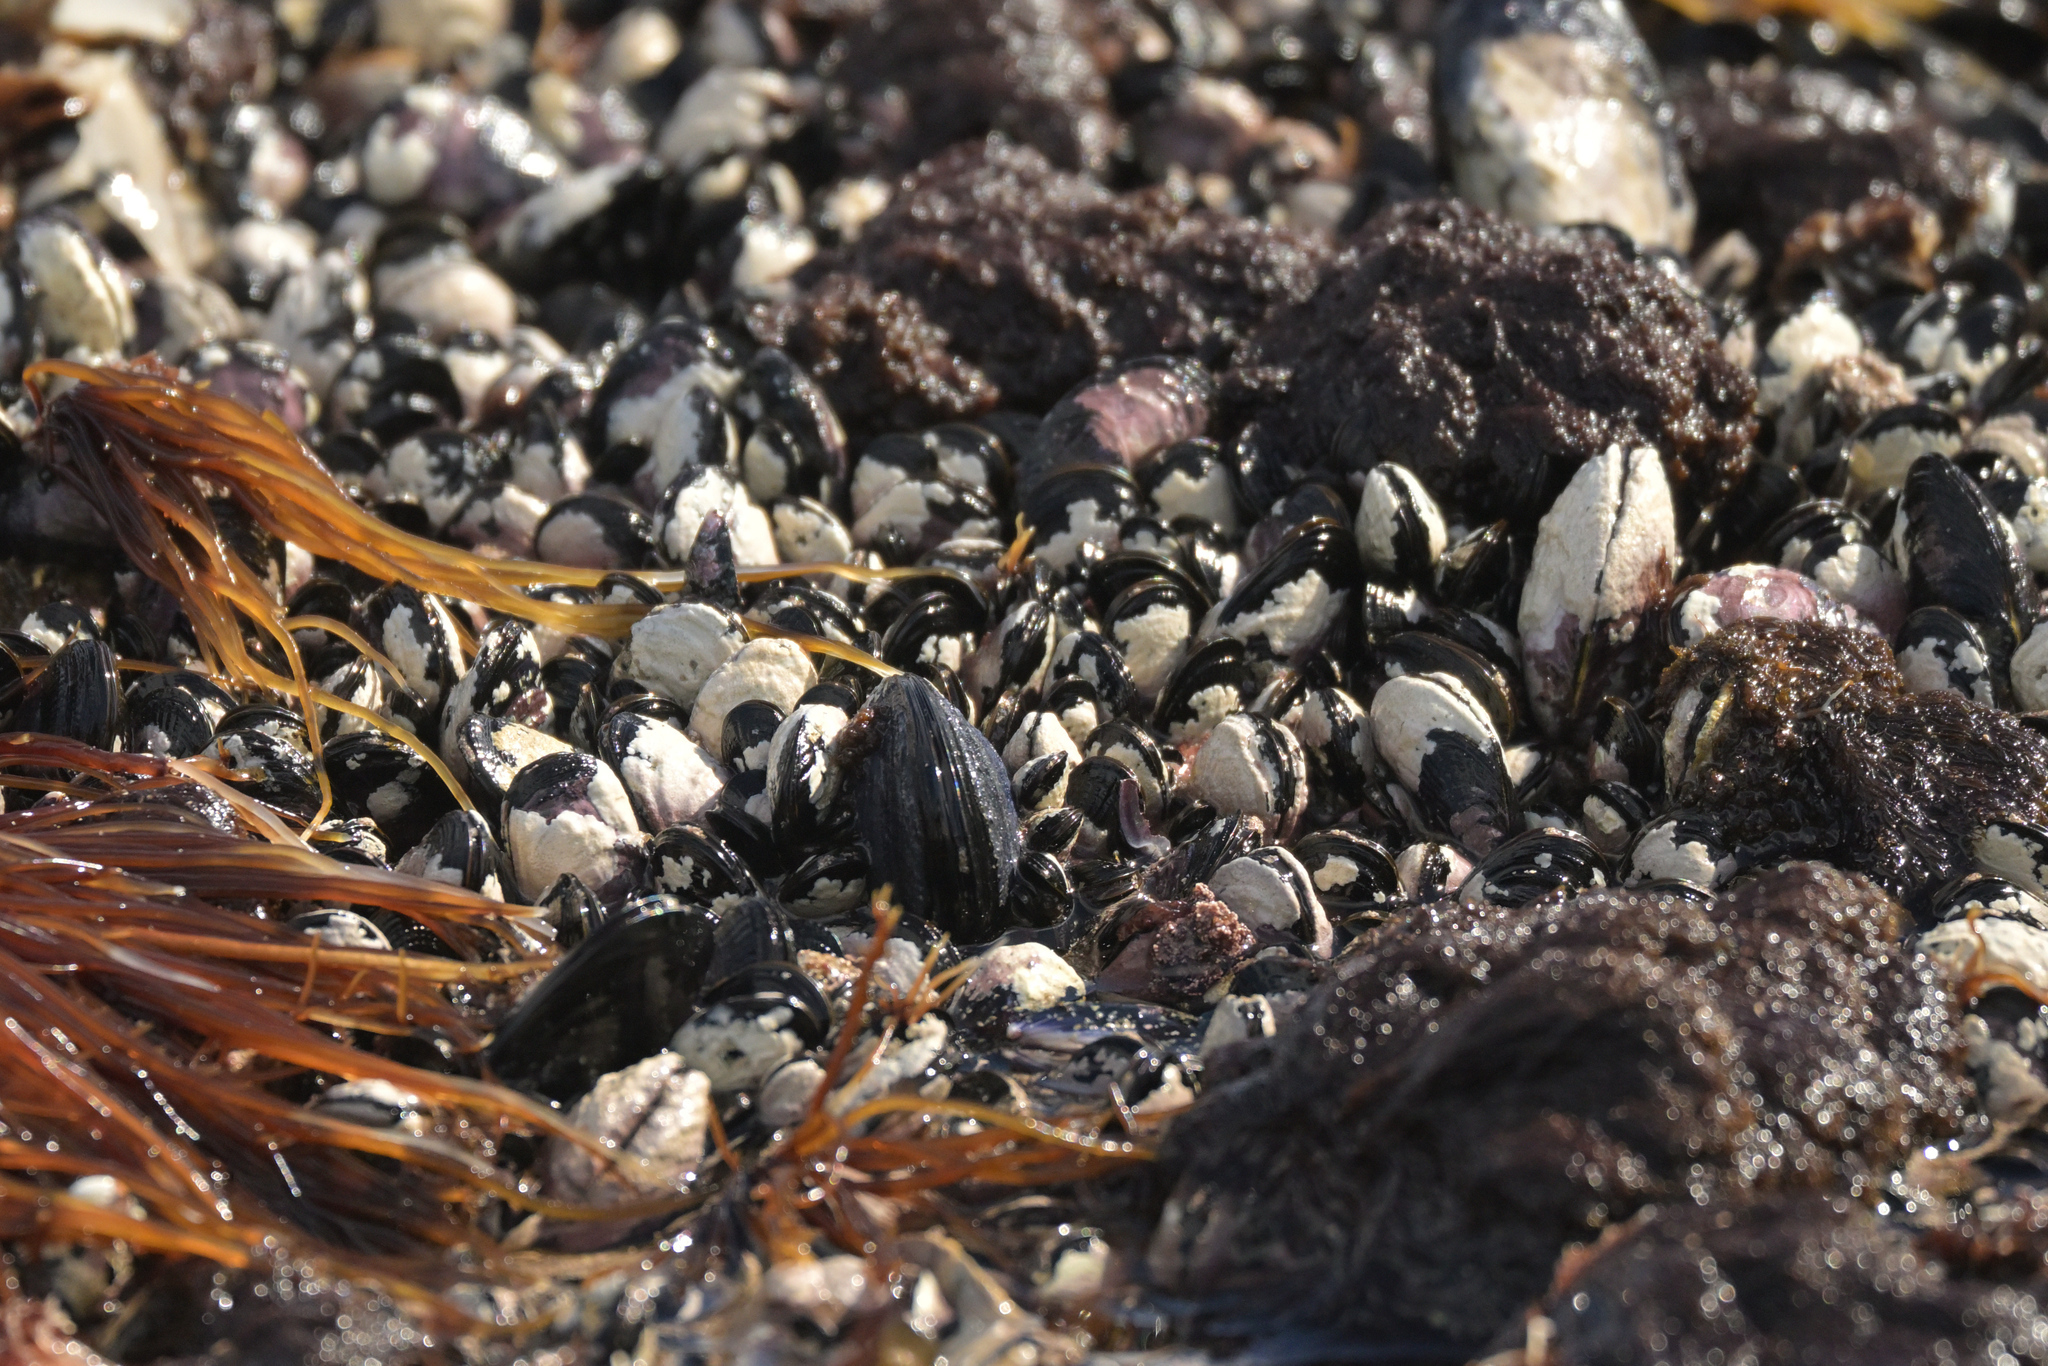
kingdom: Animalia
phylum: Mollusca
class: Bivalvia
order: Mytilida
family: Mytilidae
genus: Aulacomya
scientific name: Aulacomya maoriana
